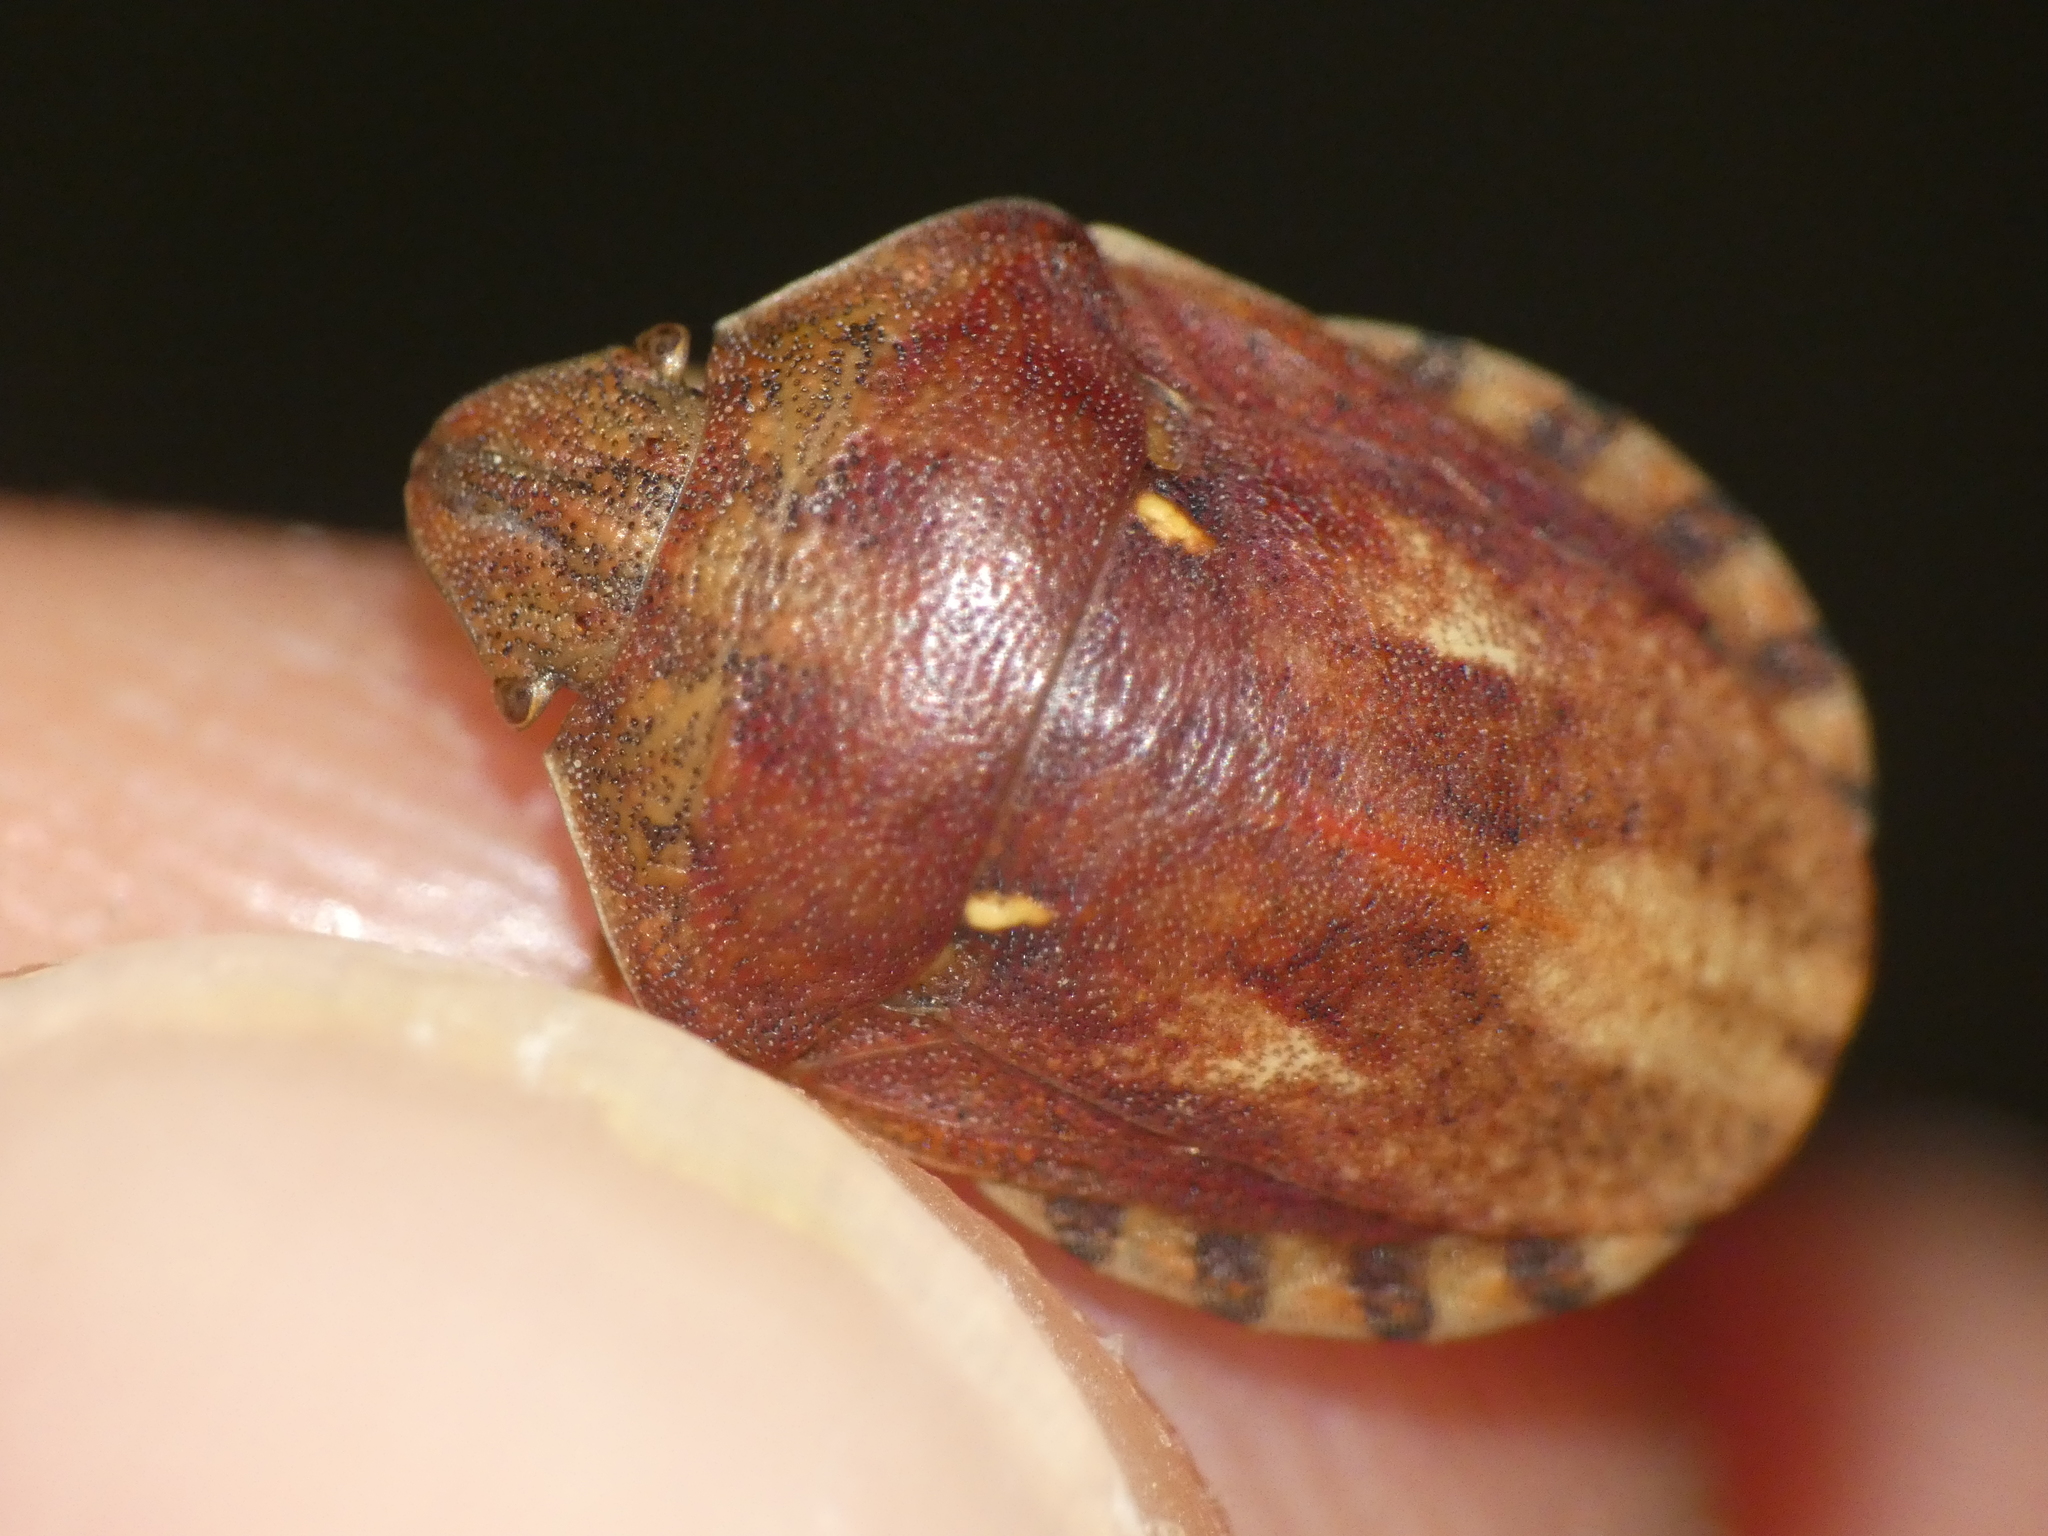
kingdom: Animalia
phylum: Arthropoda
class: Insecta
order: Hemiptera
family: Scutelleridae
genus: Eurygaster
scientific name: Eurygaster maura
